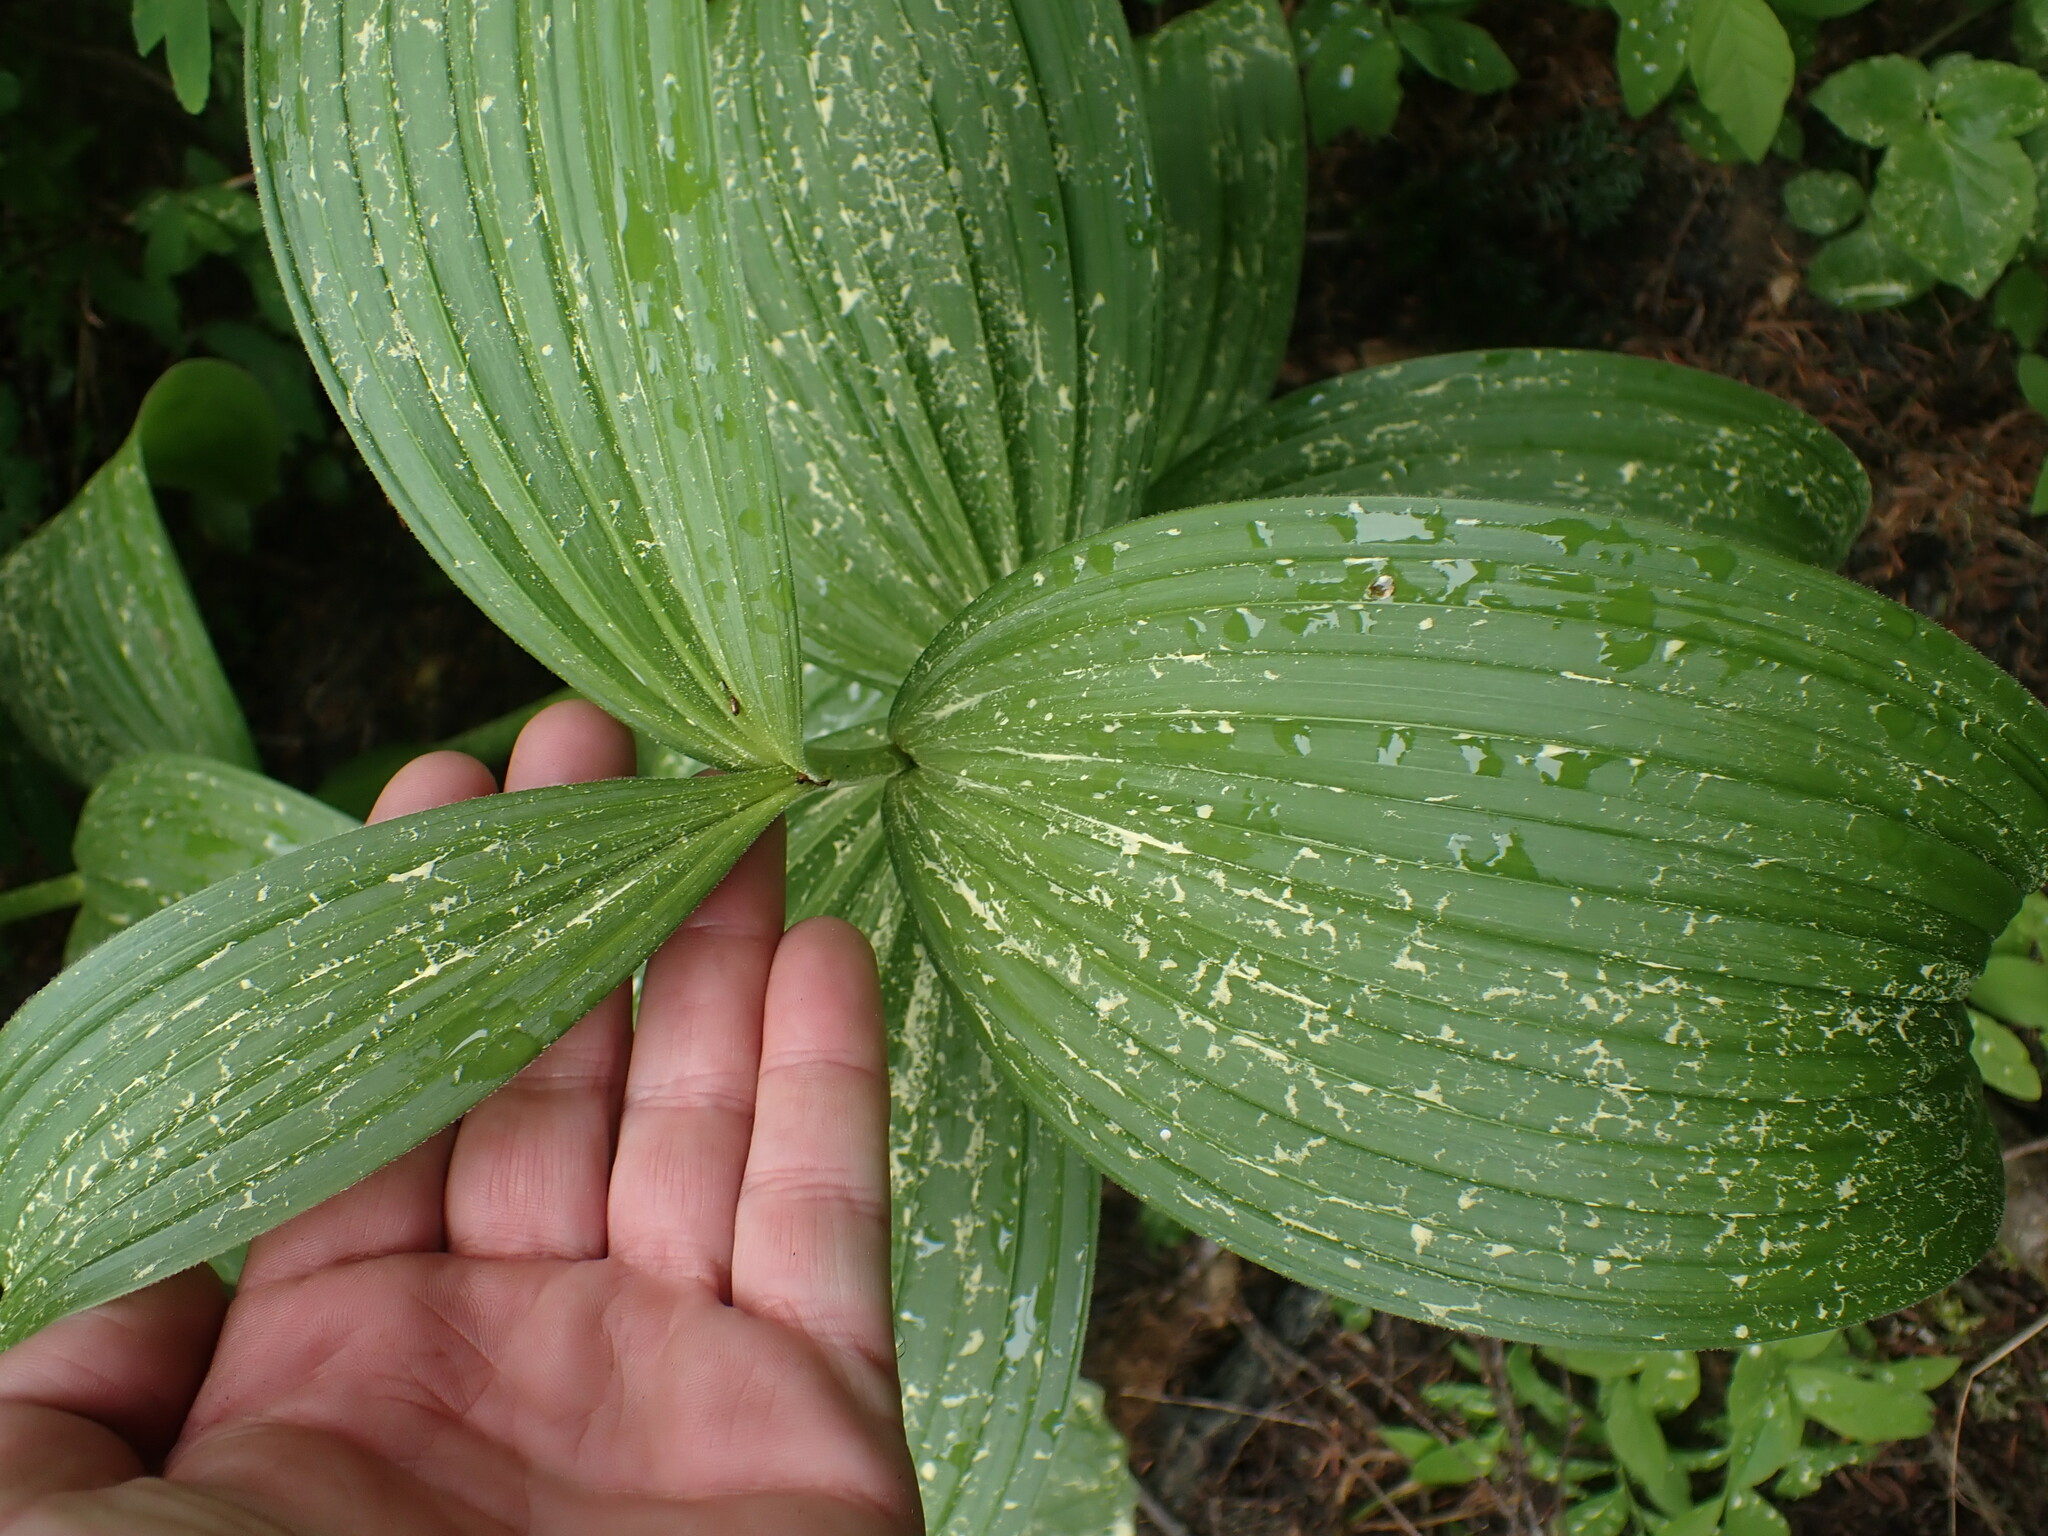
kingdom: Plantae
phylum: Tracheophyta
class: Liliopsida
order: Liliales
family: Melanthiaceae
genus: Veratrum
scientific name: Veratrum viride
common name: American false hellebore
